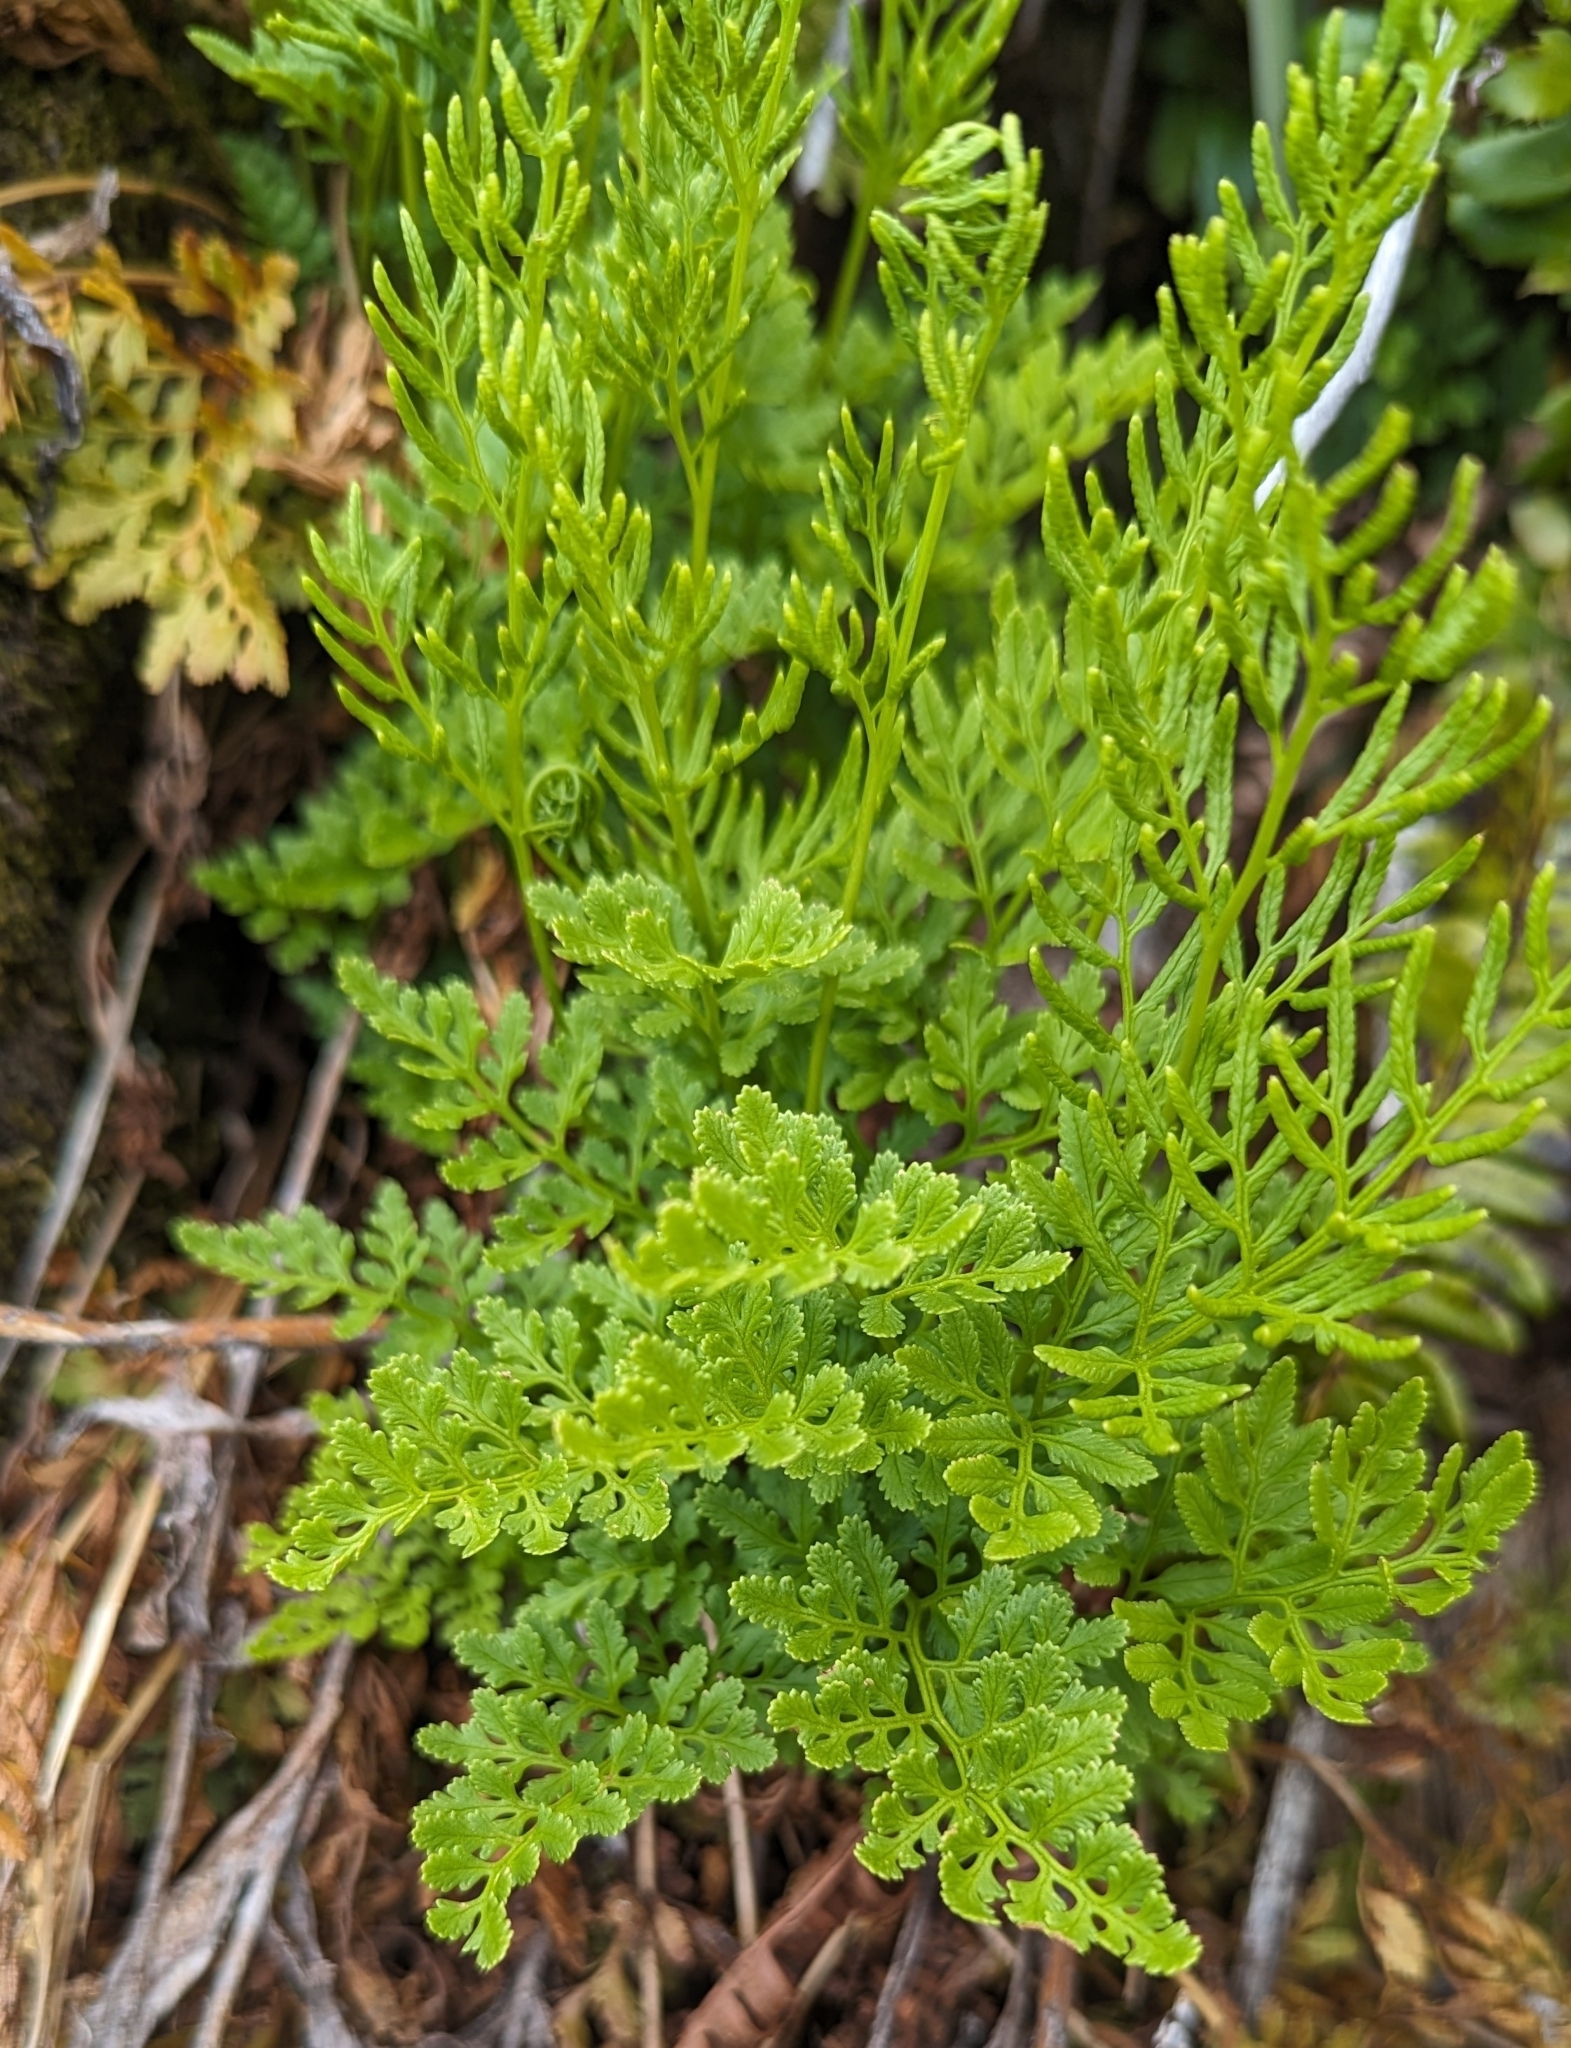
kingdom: Plantae
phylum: Tracheophyta
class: Polypodiopsida
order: Polypodiales
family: Pteridaceae
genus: Cryptogramma
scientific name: Cryptogramma acrostichoides
